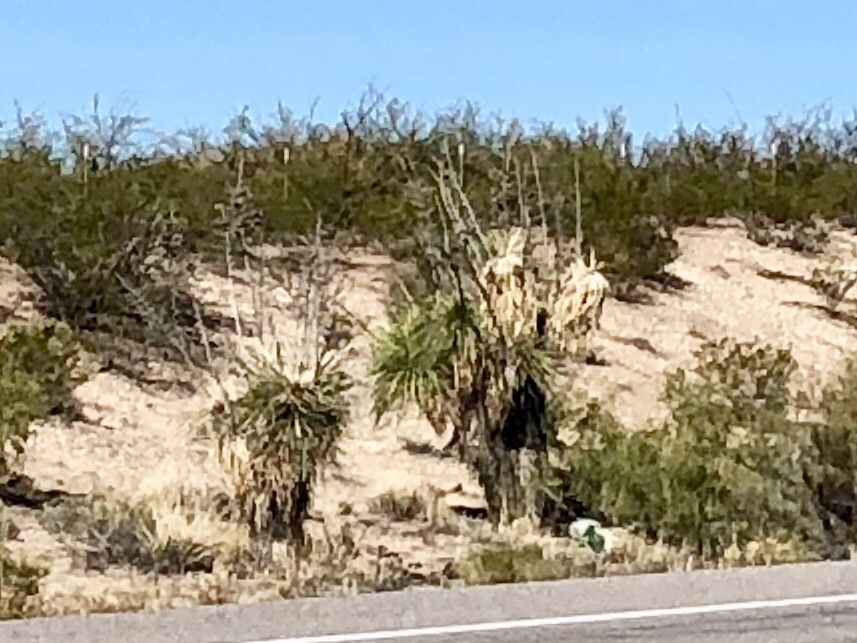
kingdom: Plantae
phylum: Tracheophyta
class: Liliopsida
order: Asparagales
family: Asparagaceae
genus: Yucca
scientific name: Yucca elata
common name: Palmella
